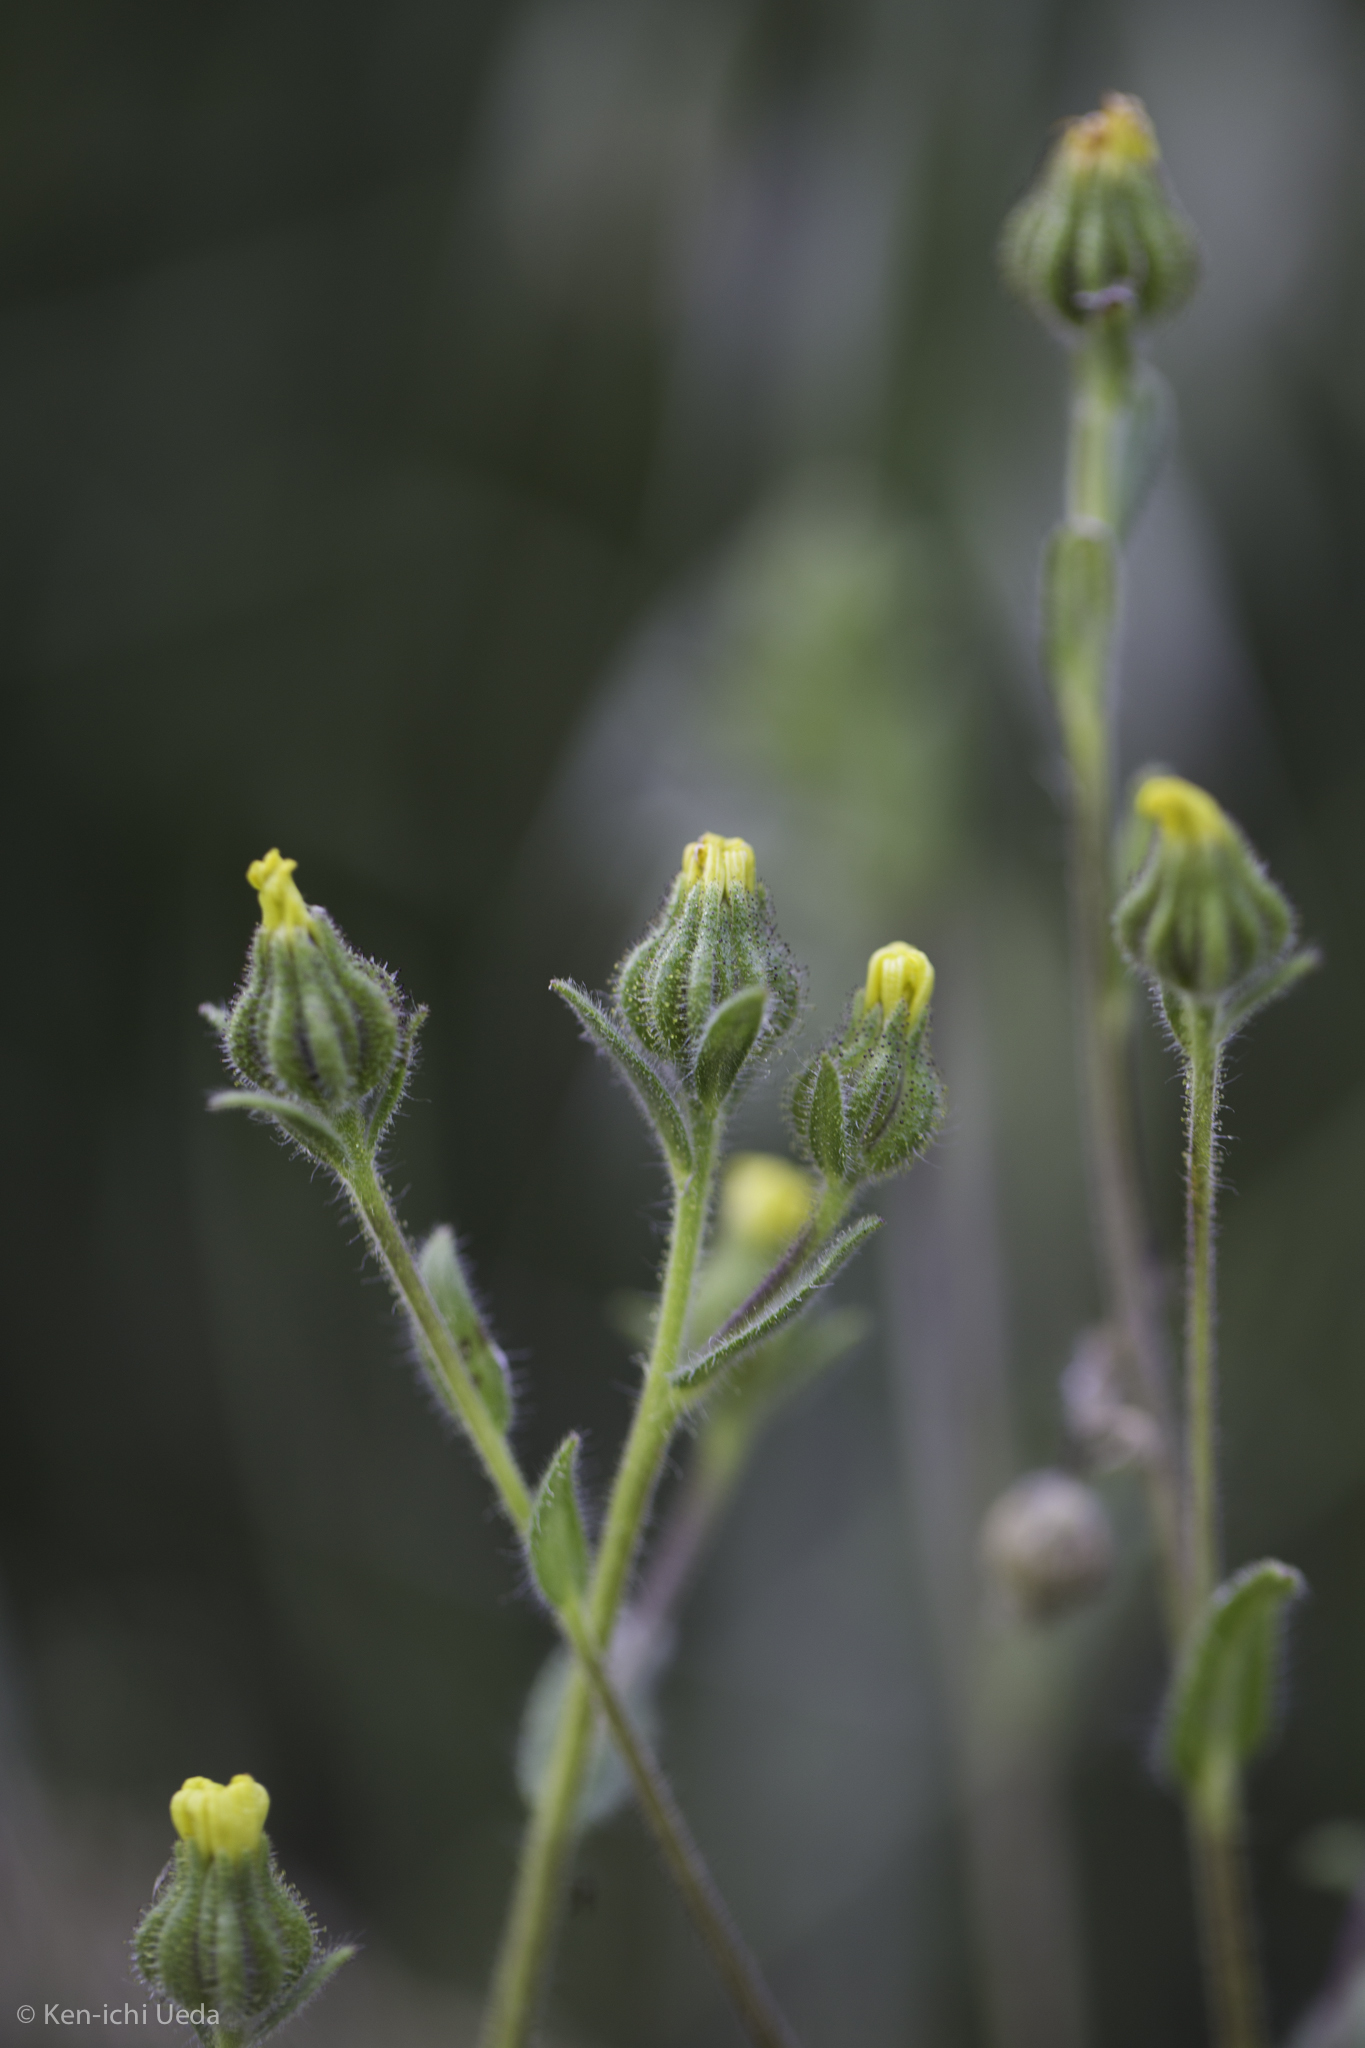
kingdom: Plantae
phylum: Tracheophyta
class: Magnoliopsida
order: Asterales
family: Asteraceae
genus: Madia
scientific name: Madia gracilis
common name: Grassy tarweed
